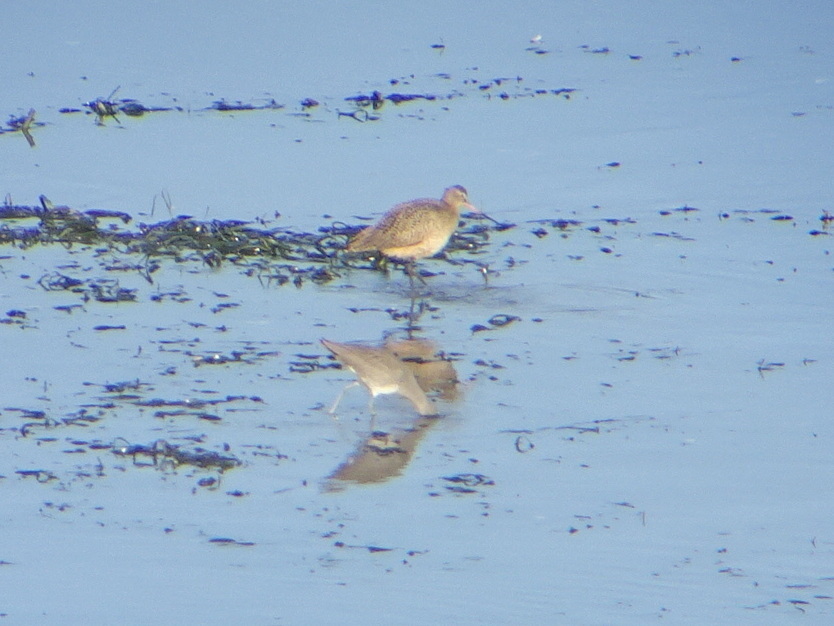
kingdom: Animalia
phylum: Chordata
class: Aves
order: Charadriiformes
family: Scolopacidae
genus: Tringa
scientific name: Tringa semipalmata
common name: Willet
